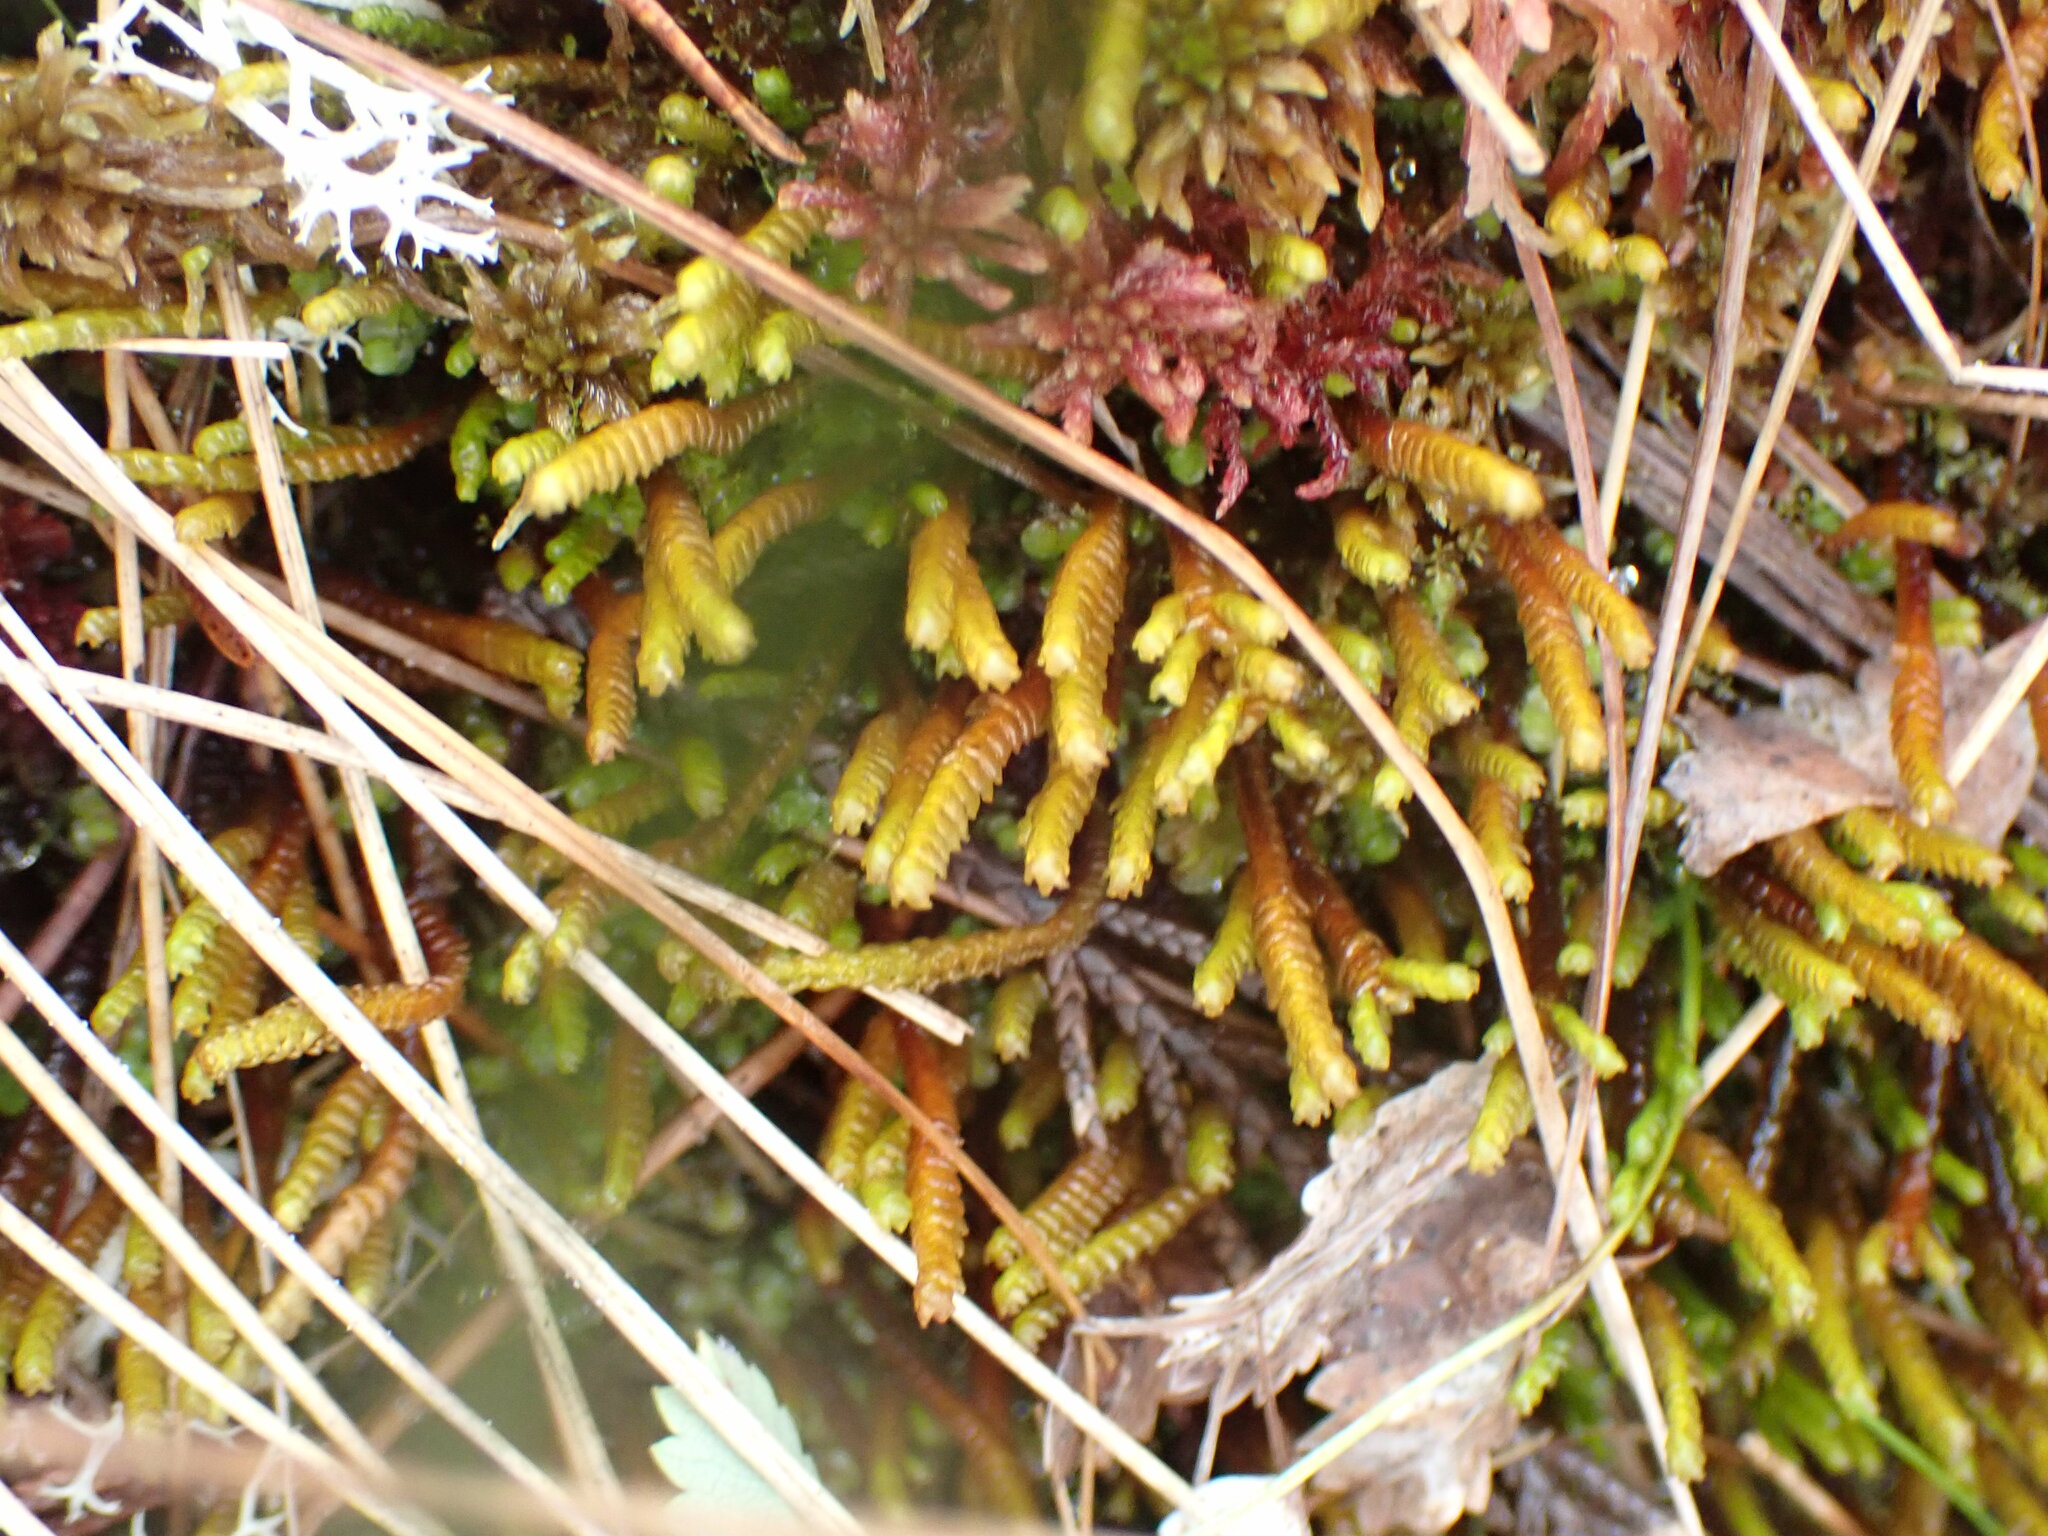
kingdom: Plantae
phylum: Marchantiophyta
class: Jungermanniopsida
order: Pleuroziales
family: Pleuroziaceae
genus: Pleurozia
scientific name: Pleurozia purpurea
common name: Purple spoonwort
